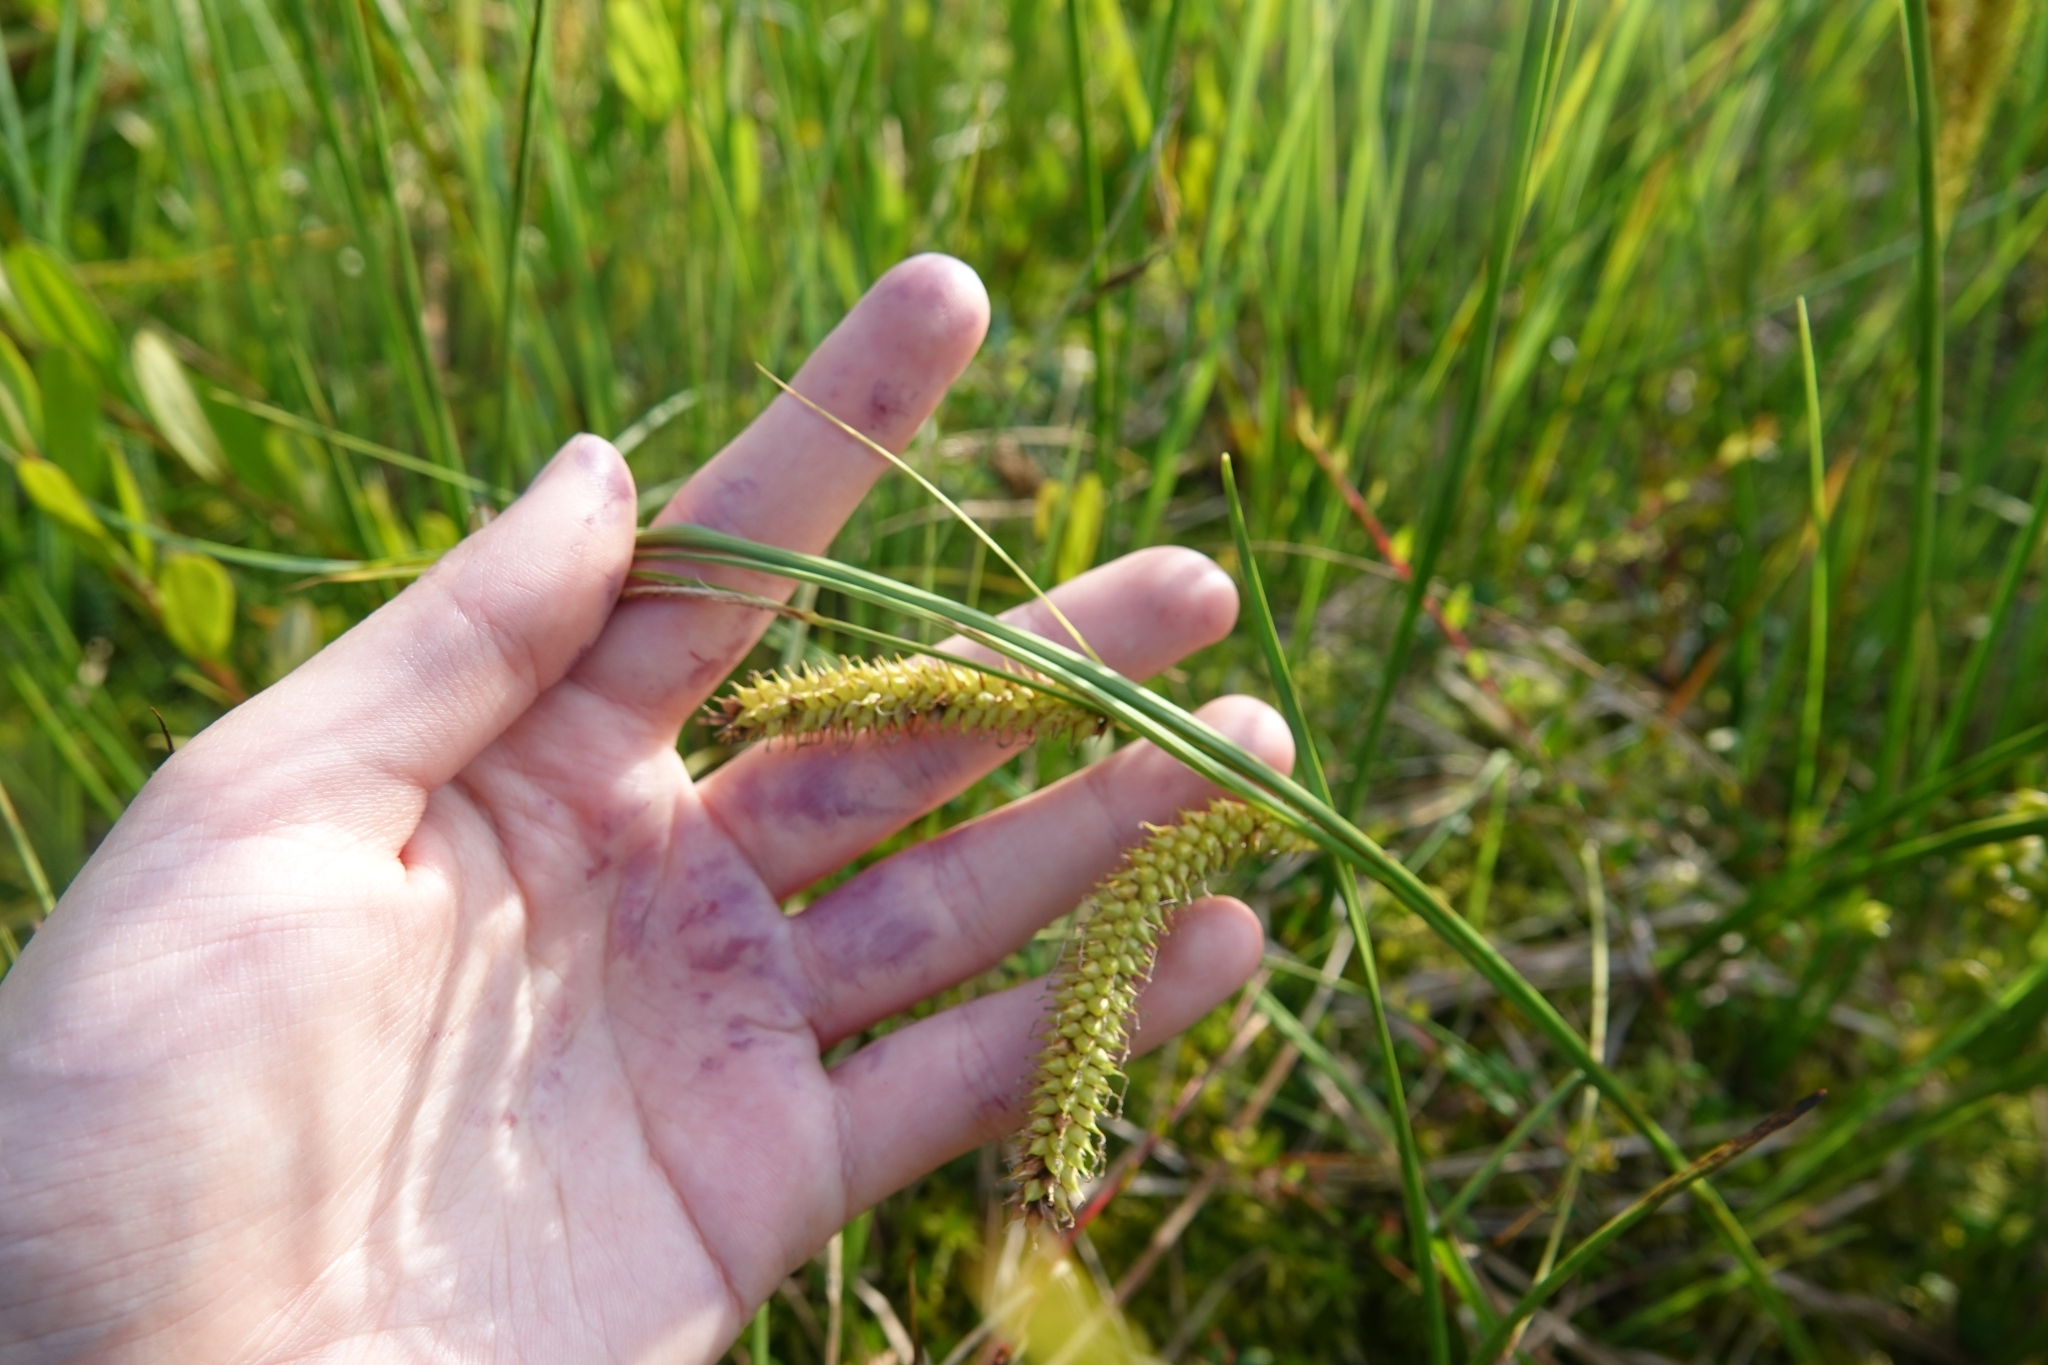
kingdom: Plantae
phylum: Tracheophyta
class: Liliopsida
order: Poales
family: Cyperaceae
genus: Carex
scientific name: Carex rostrata
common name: Bottle sedge
